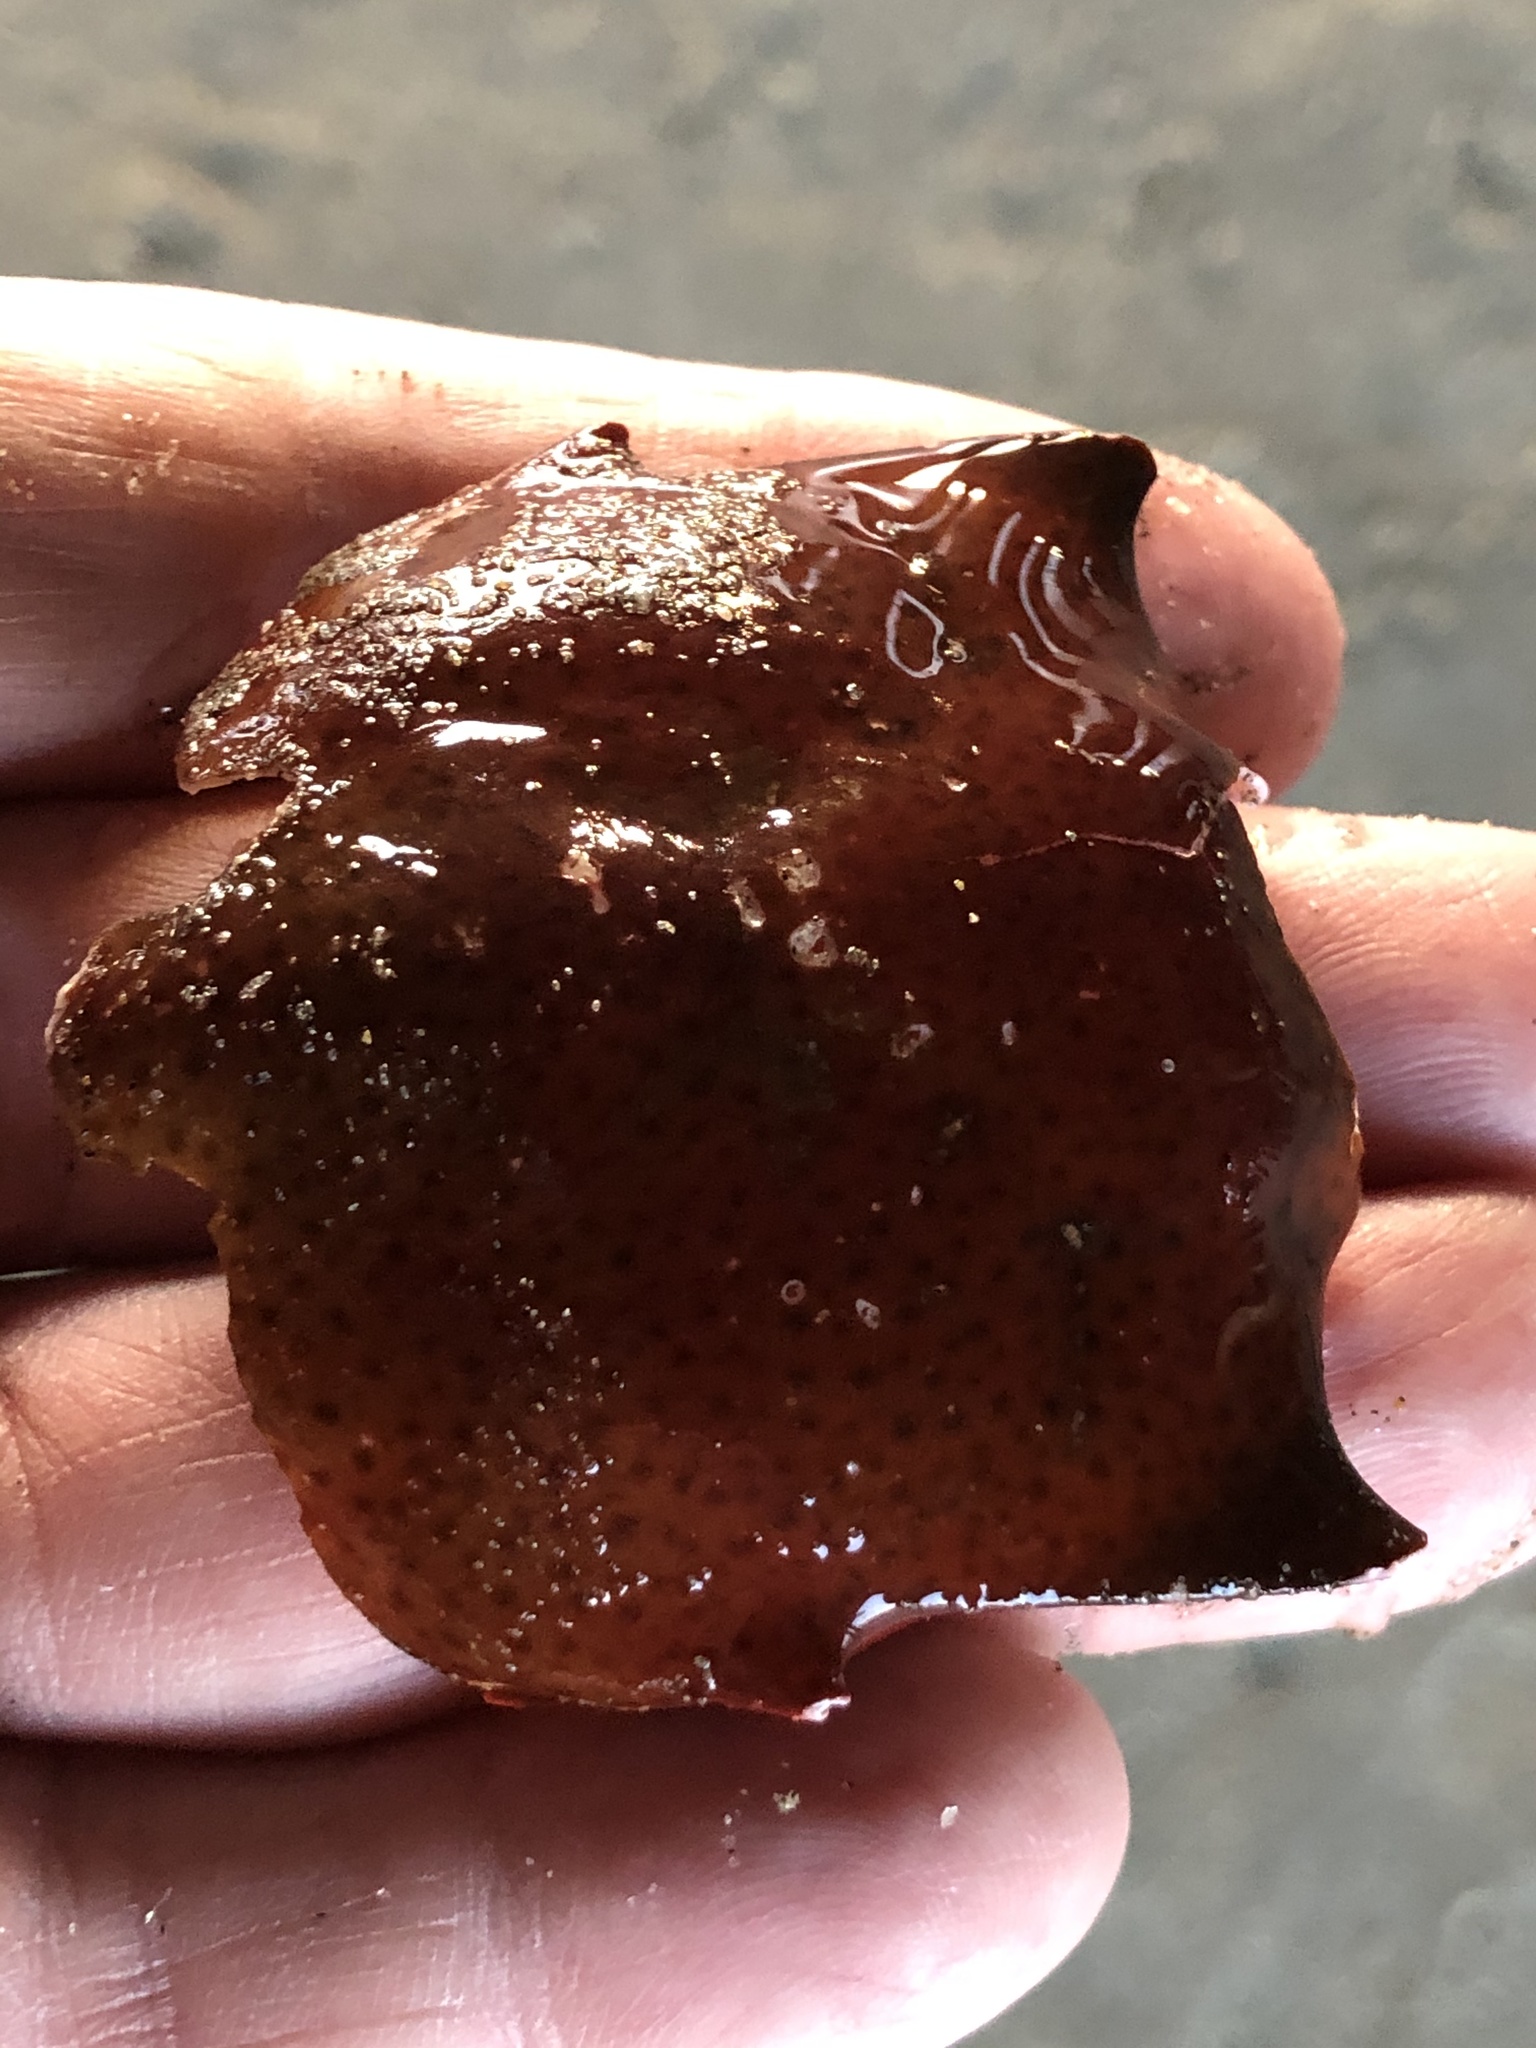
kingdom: Animalia
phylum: Arthropoda
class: Malacostraca
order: Decapoda
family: Epialtidae
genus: Pugettia
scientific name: Pugettia producta
